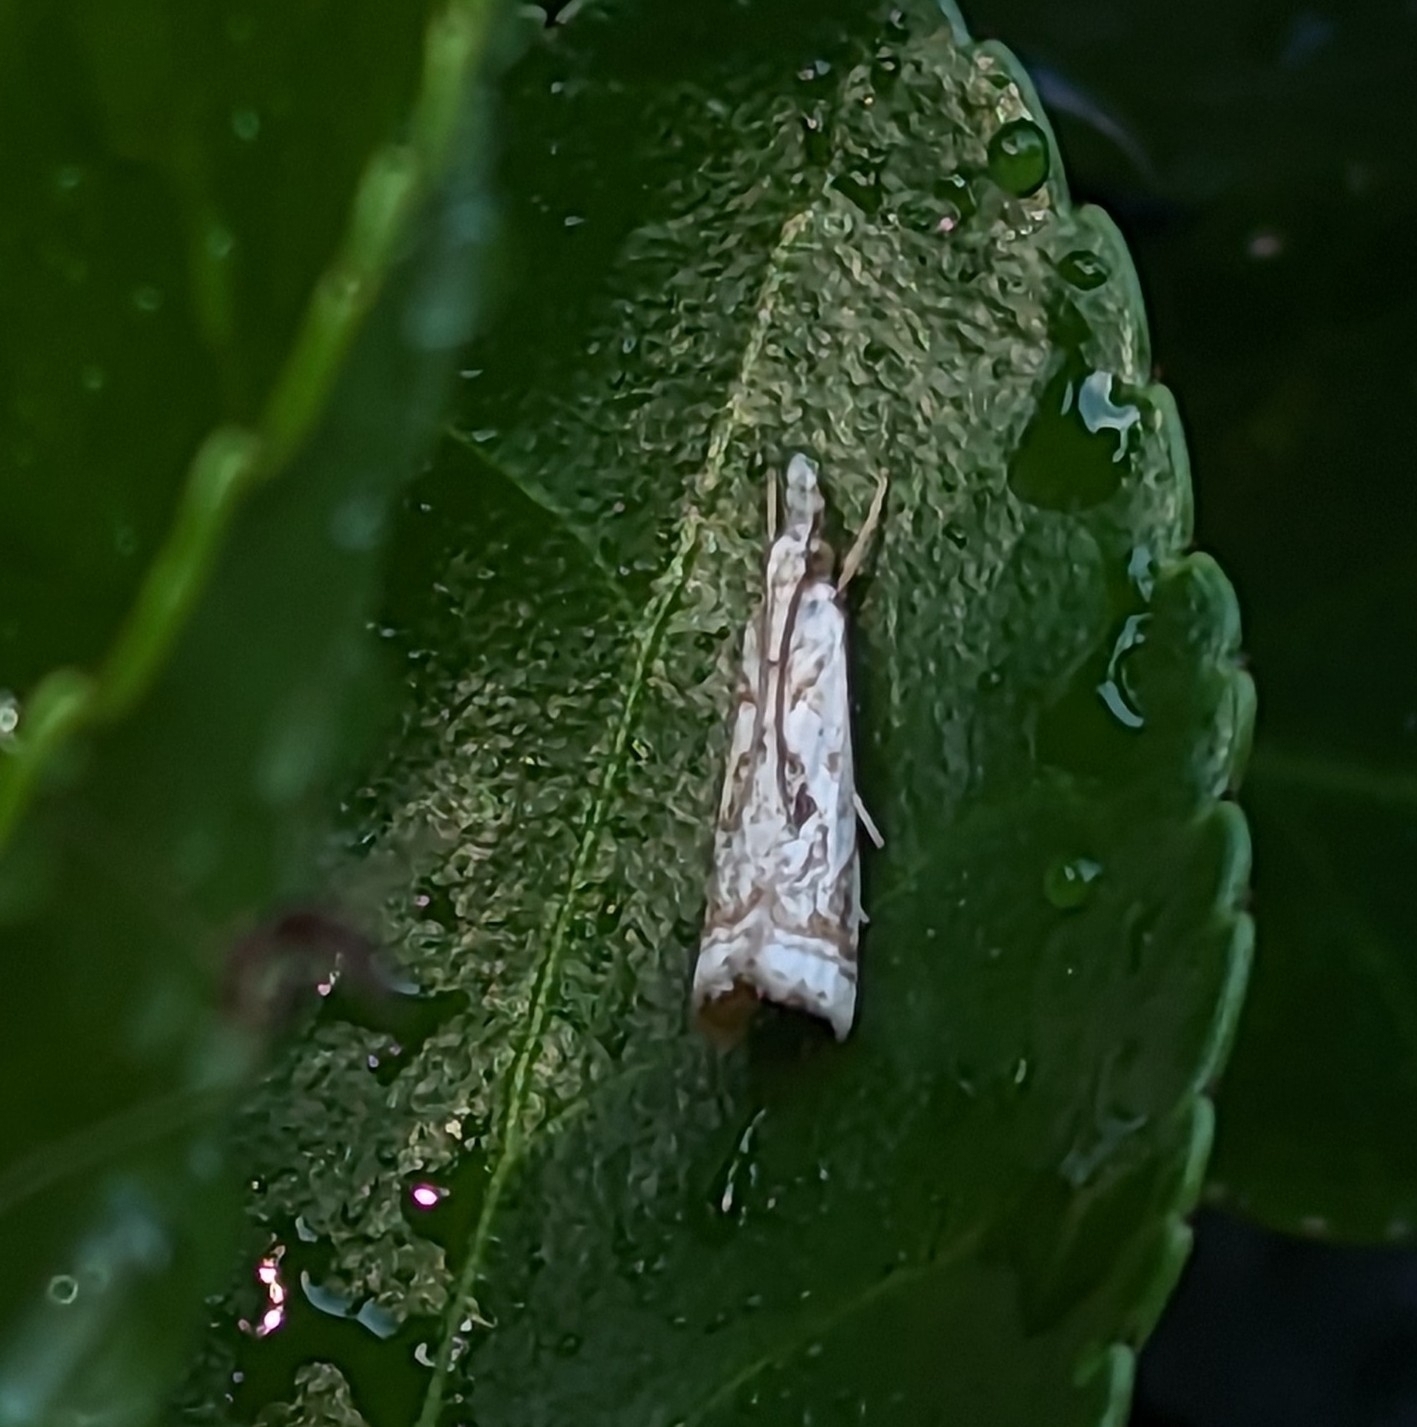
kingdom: Animalia
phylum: Arthropoda
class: Insecta
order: Lepidoptera
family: Crambidae
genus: Microcrambus
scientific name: Microcrambus elegans
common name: Elegant grass-veneer
